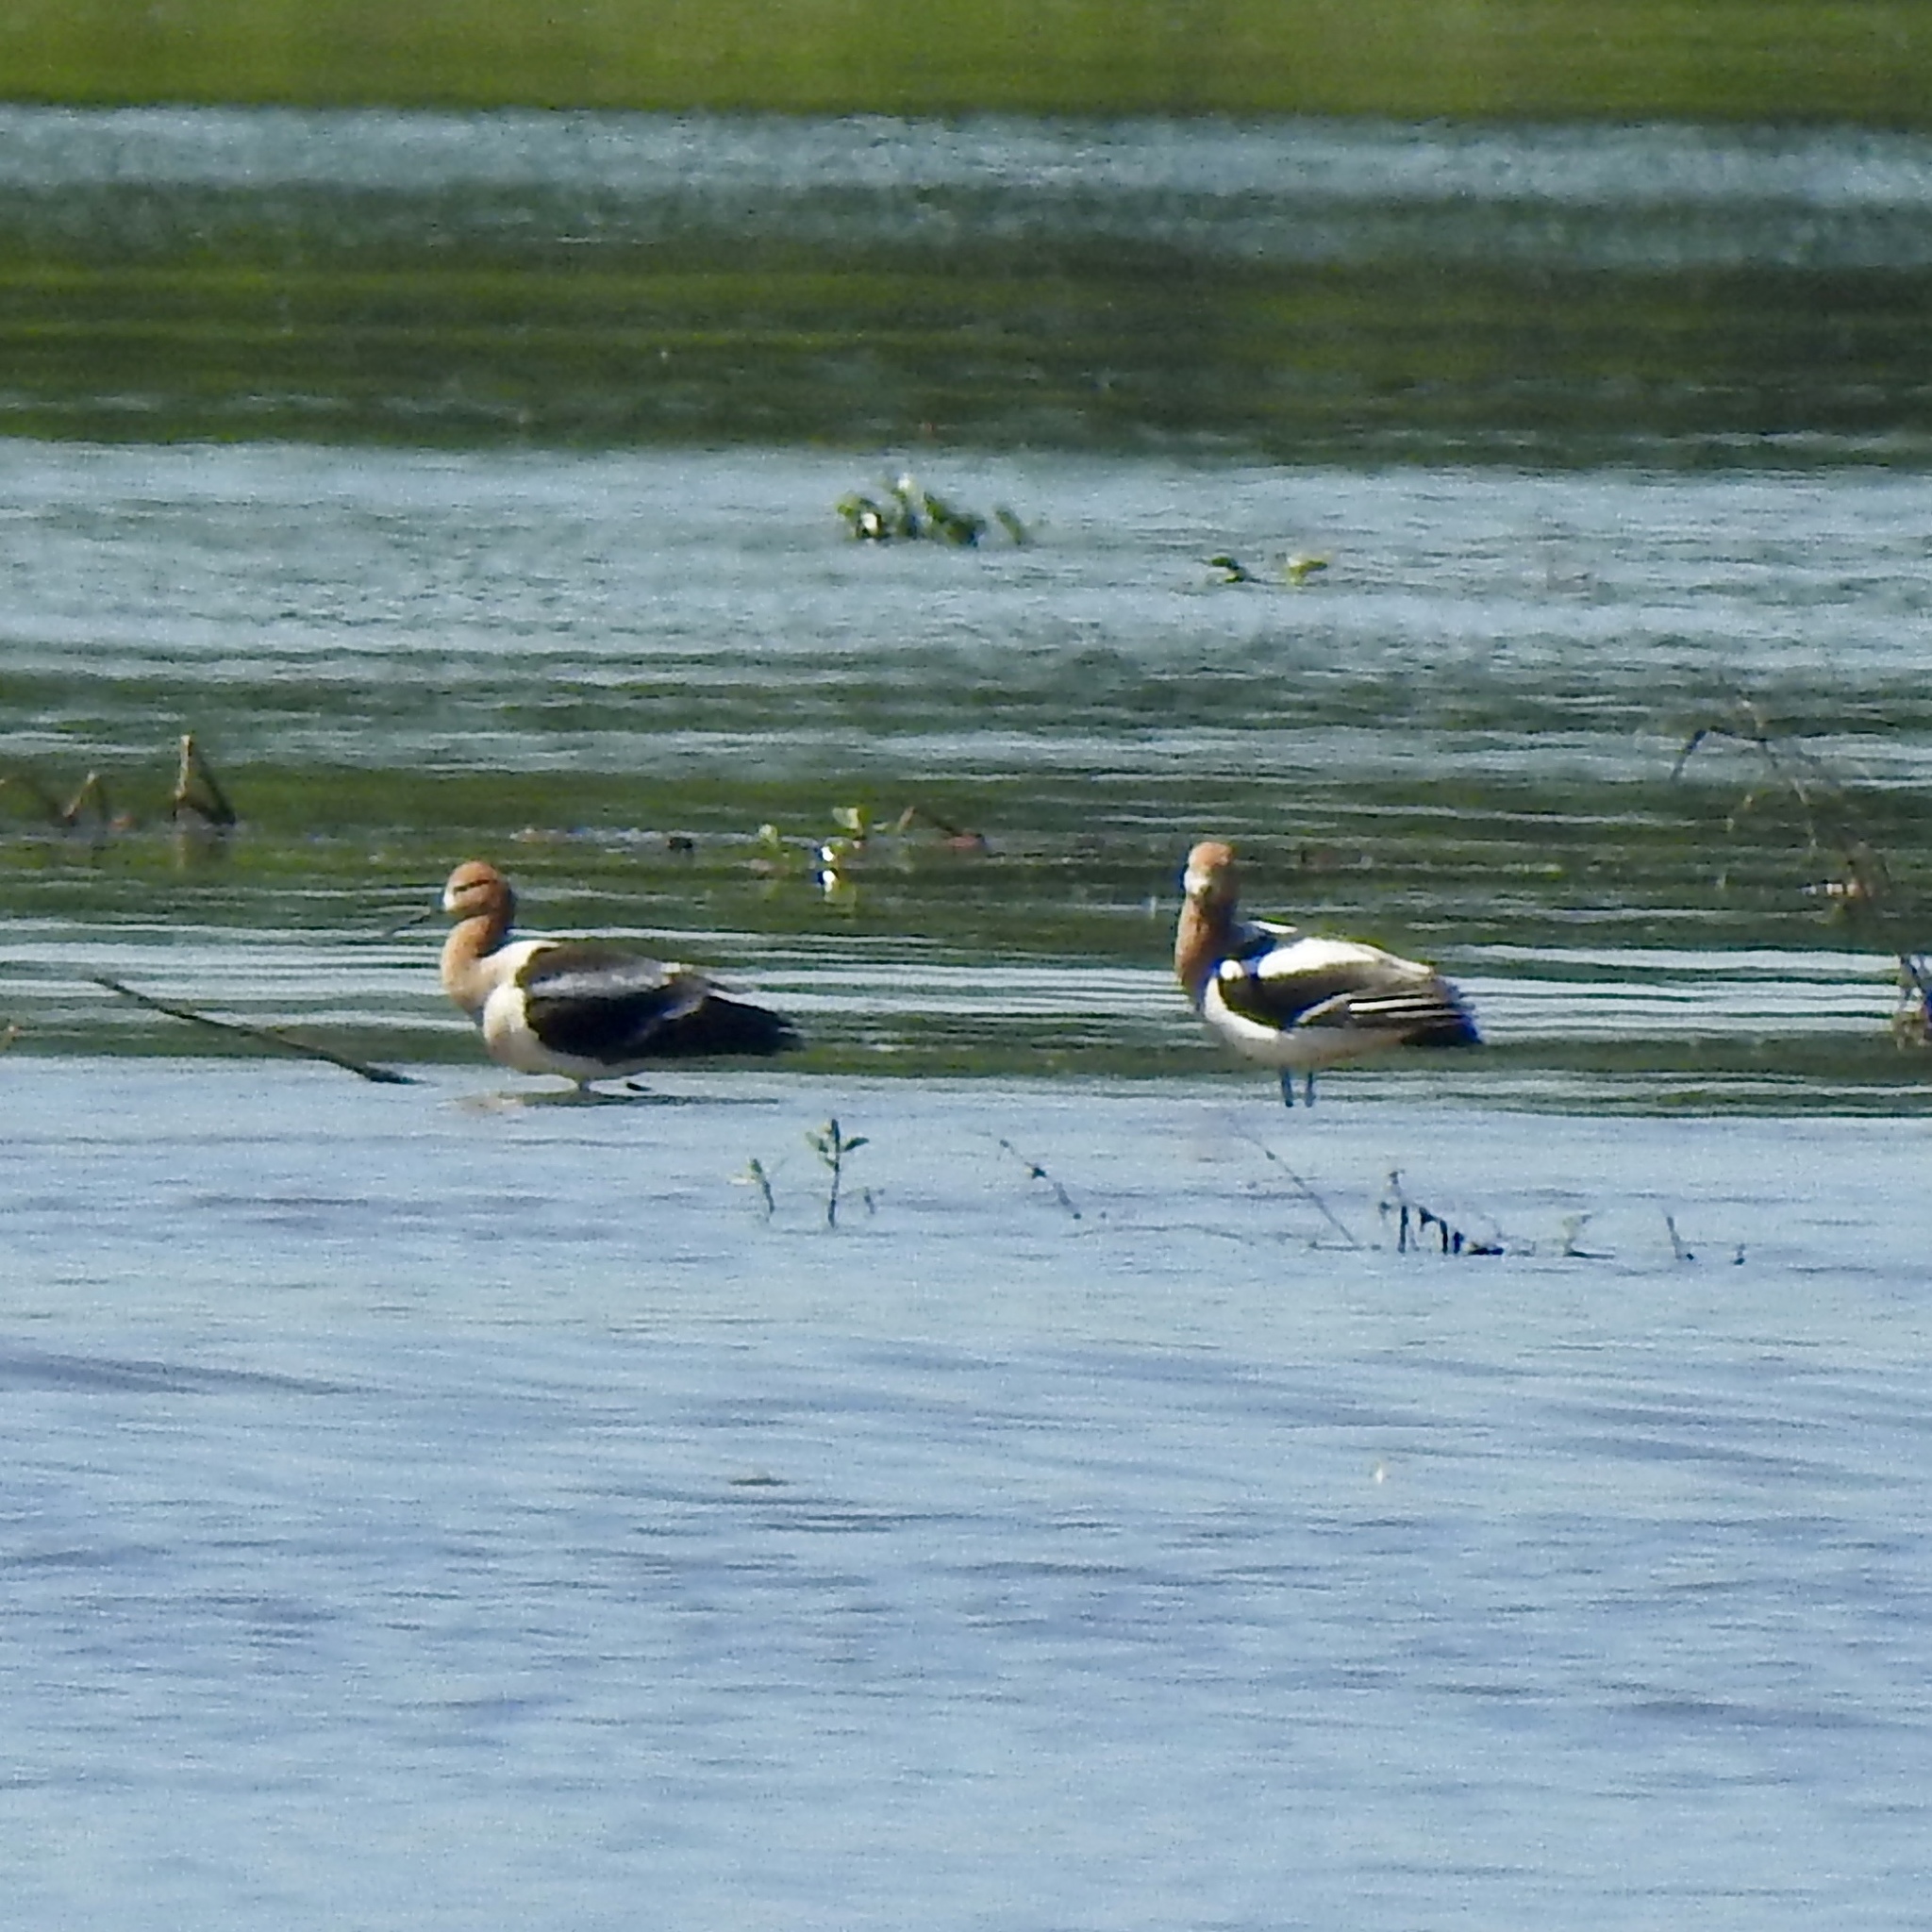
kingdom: Animalia
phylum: Chordata
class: Aves
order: Charadriiformes
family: Recurvirostridae
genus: Recurvirostra
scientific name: Recurvirostra americana
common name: American avocet
